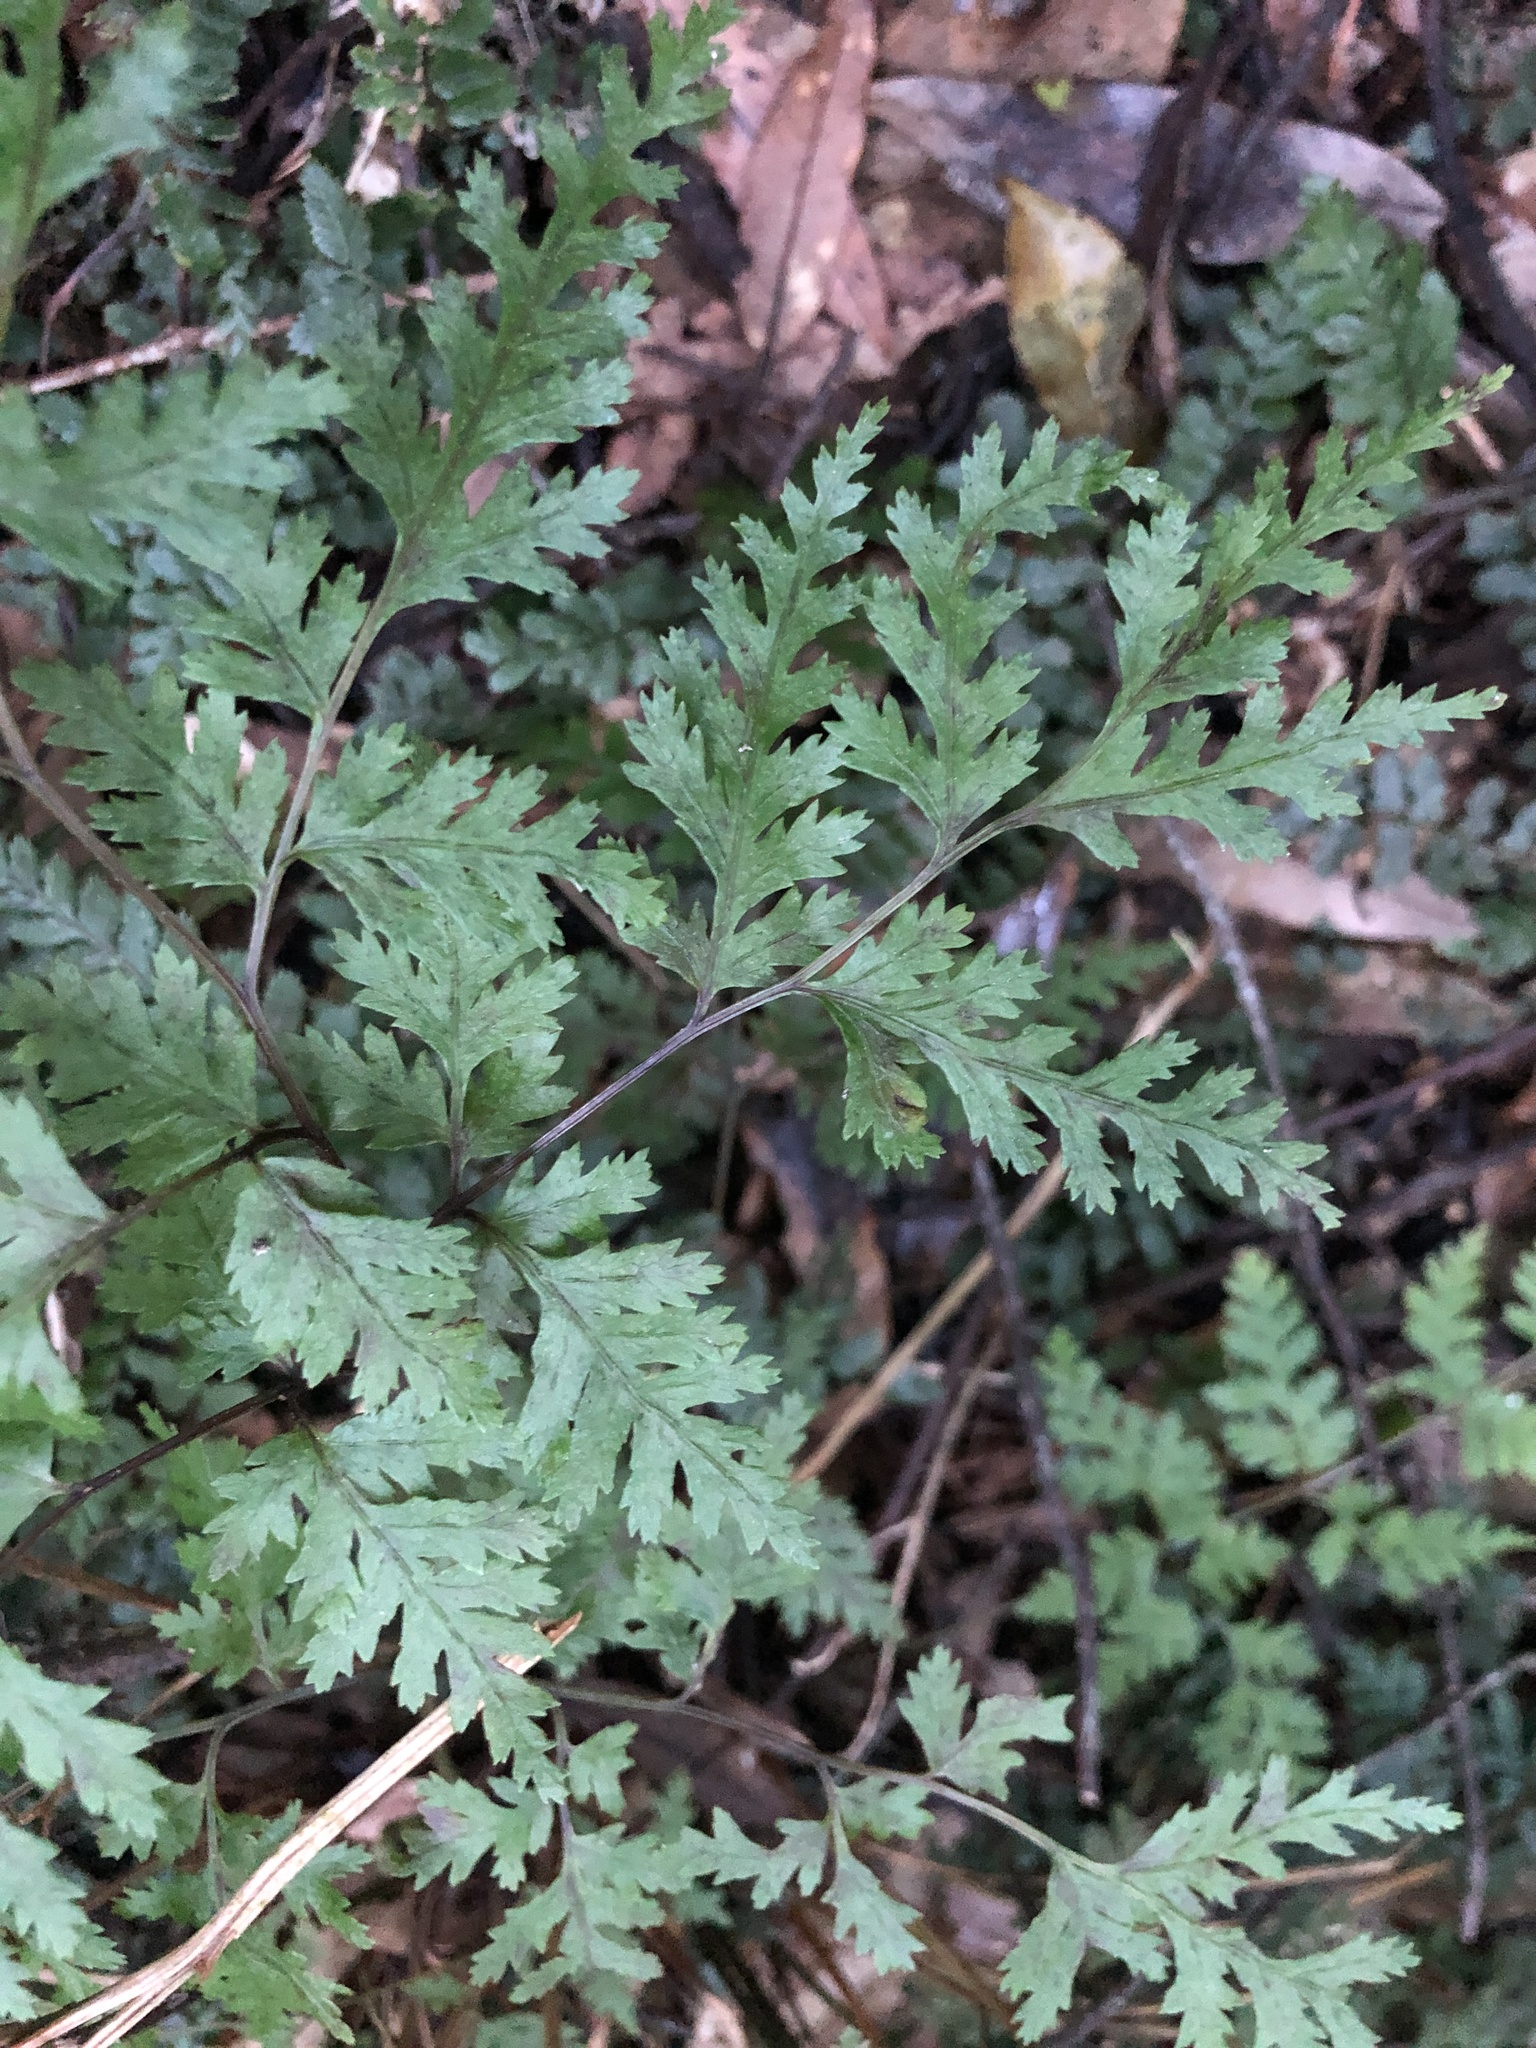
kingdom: Plantae
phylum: Tracheophyta
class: Polypodiopsida
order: Polypodiales
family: Pteridaceae
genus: Pteris
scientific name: Pteris macilenta
